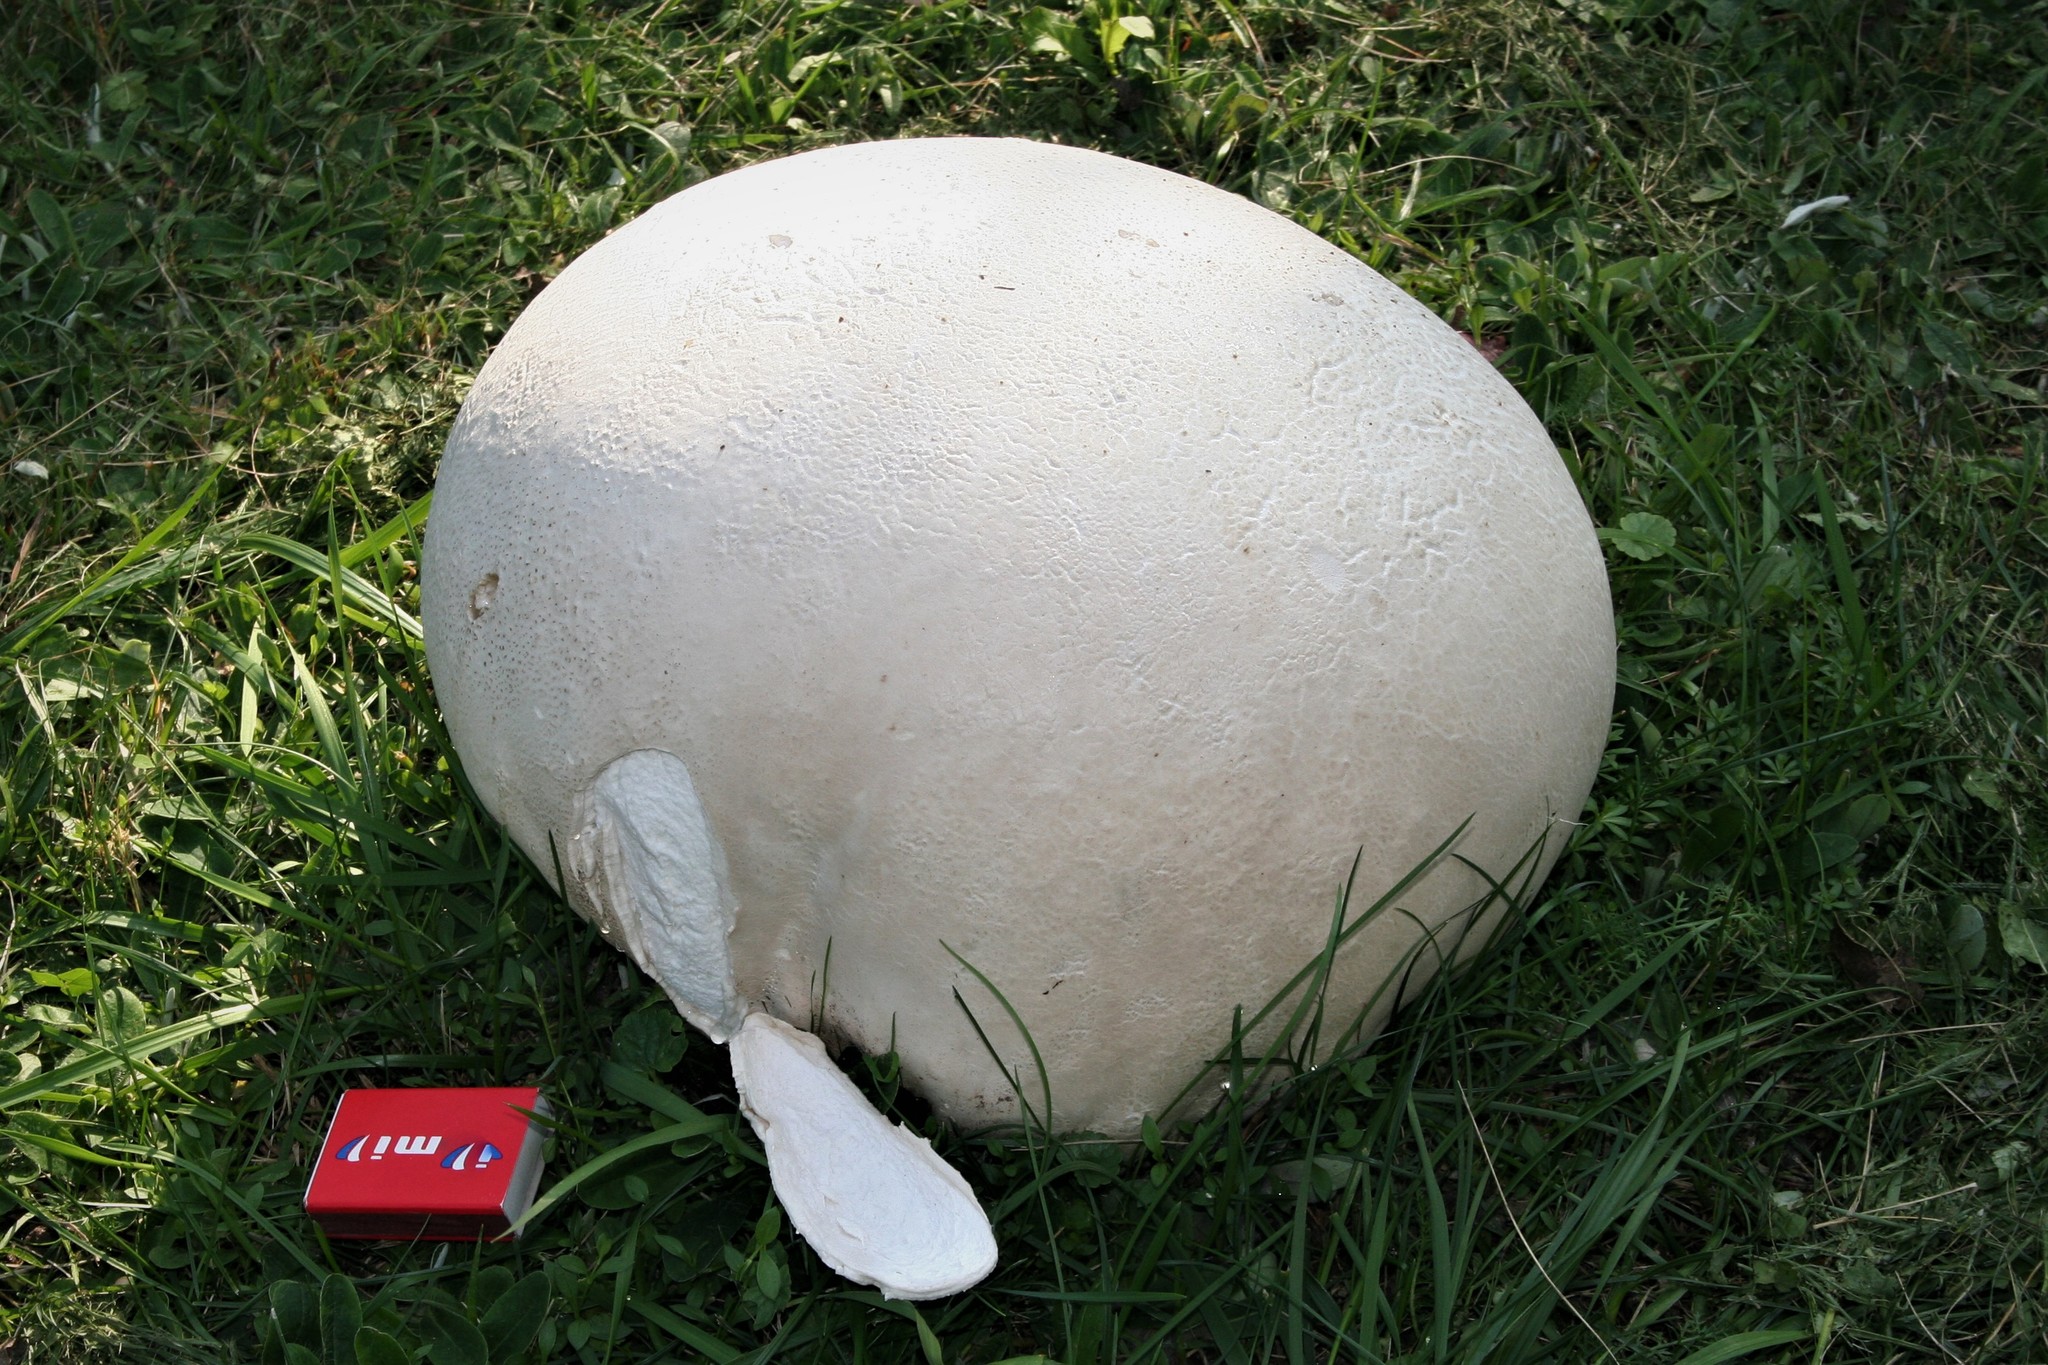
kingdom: Fungi
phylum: Basidiomycota
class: Agaricomycetes
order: Agaricales
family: Lycoperdaceae
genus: Calvatia
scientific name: Calvatia gigantea
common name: Giant puffball
